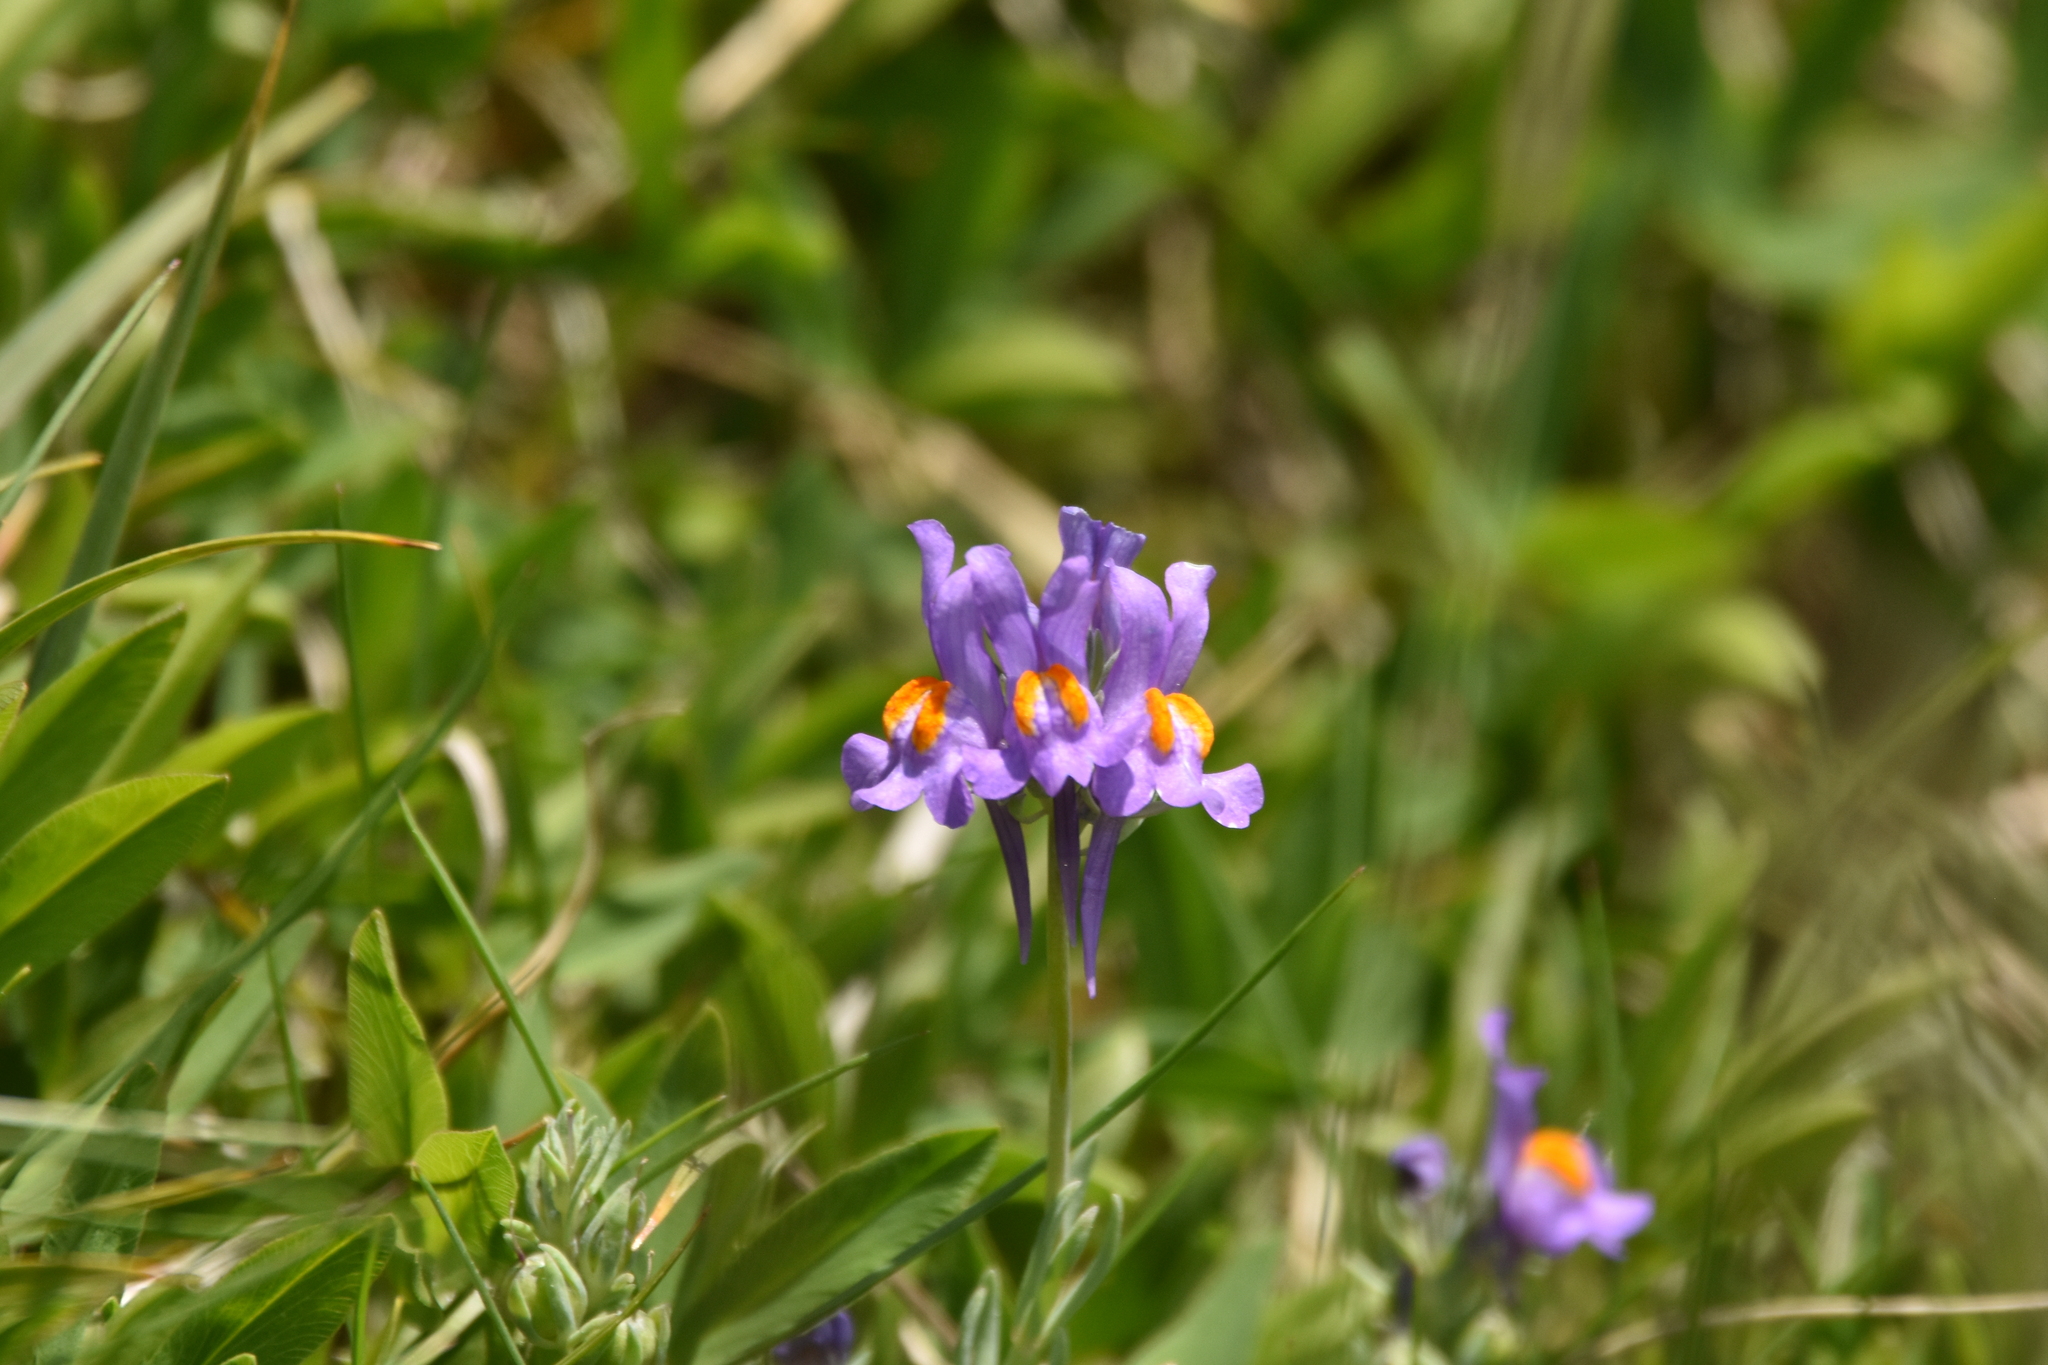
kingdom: Plantae
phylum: Tracheophyta
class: Magnoliopsida
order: Lamiales
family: Plantaginaceae
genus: Linaria
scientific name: Linaria alpina
